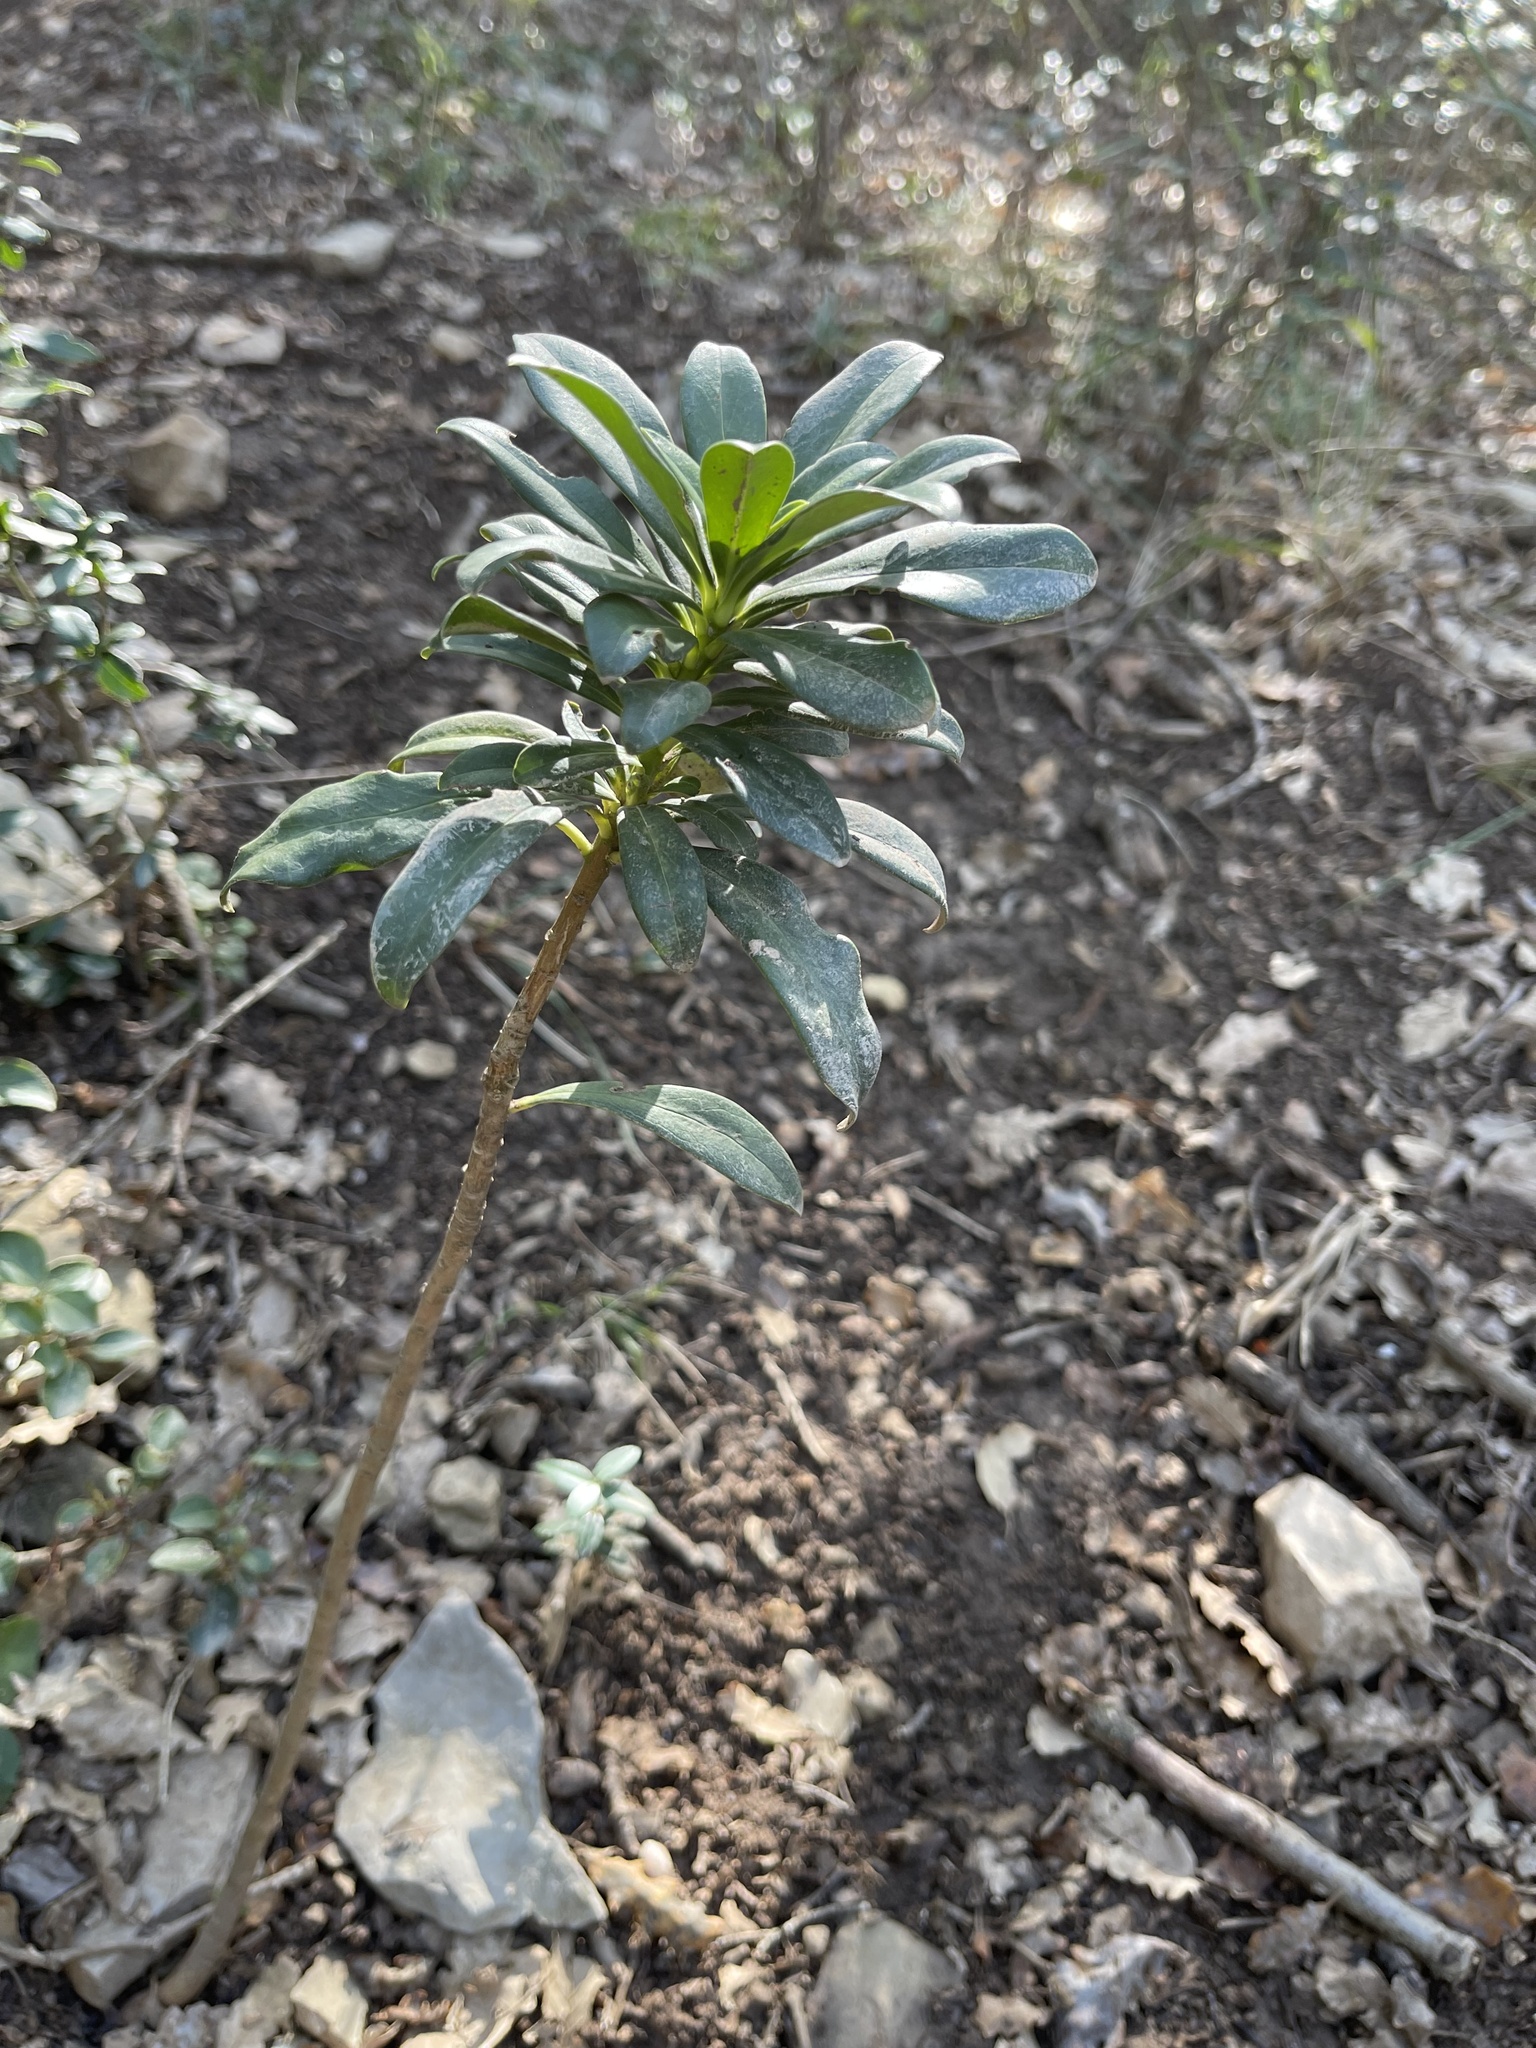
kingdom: Plantae
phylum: Tracheophyta
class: Magnoliopsida
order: Malvales
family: Thymelaeaceae
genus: Daphne
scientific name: Daphne laureola
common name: Spurge-laurel
